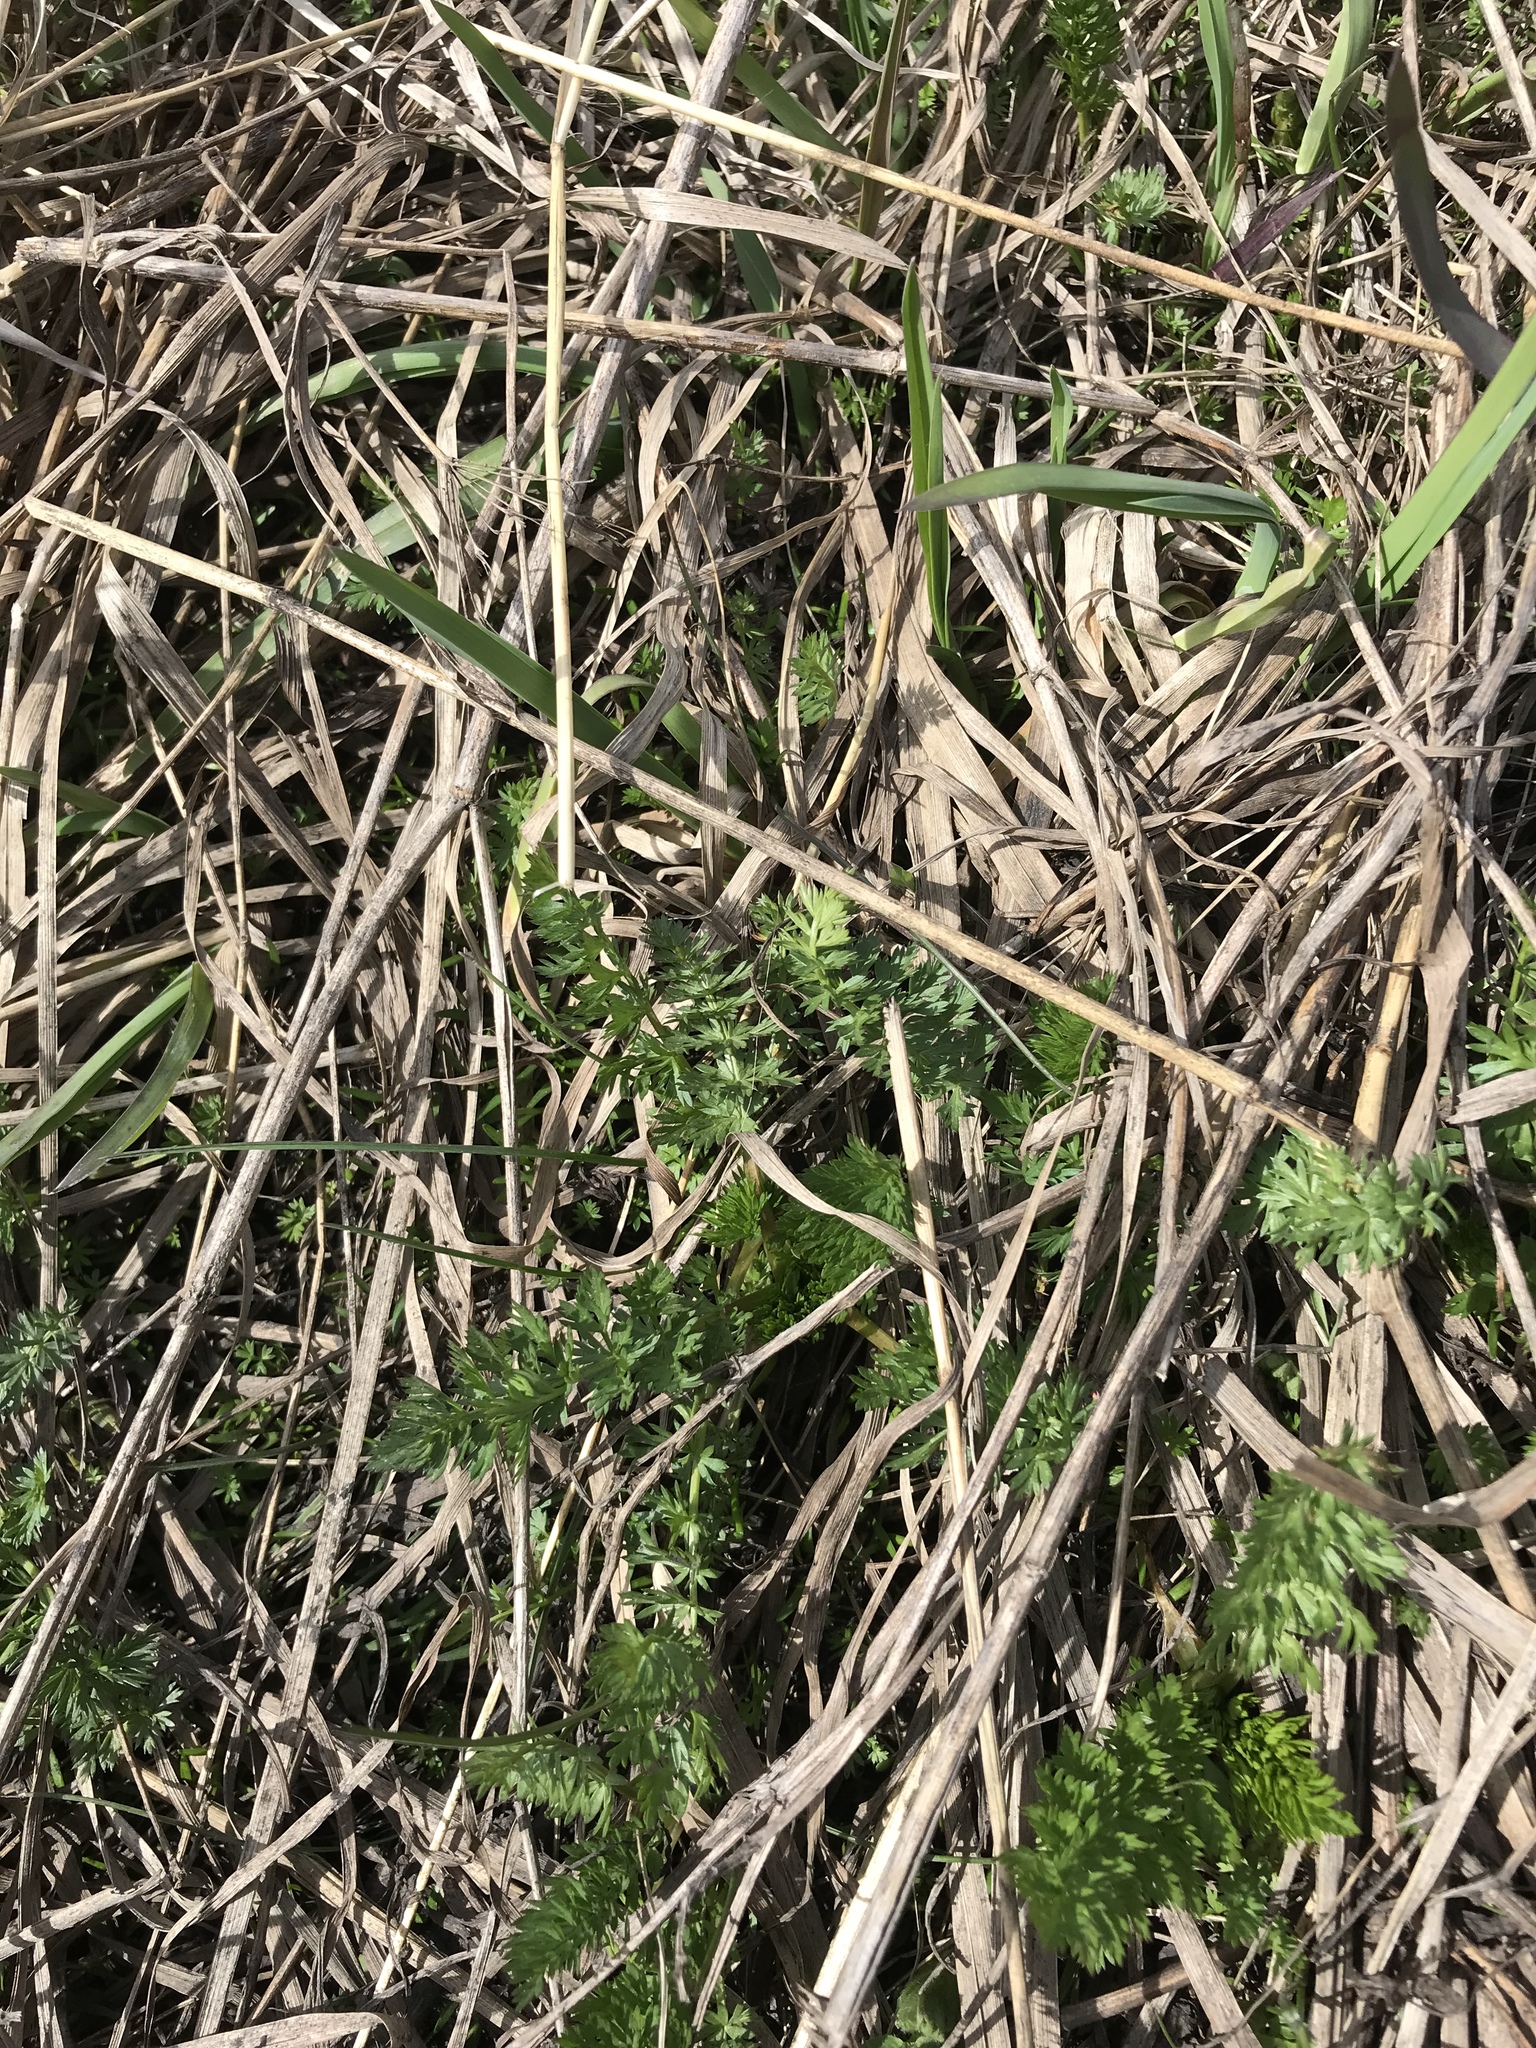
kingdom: Plantae
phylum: Tracheophyta
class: Magnoliopsida
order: Apiales
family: Apiaceae
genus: Carum
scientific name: Carum carvi
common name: Caraway
